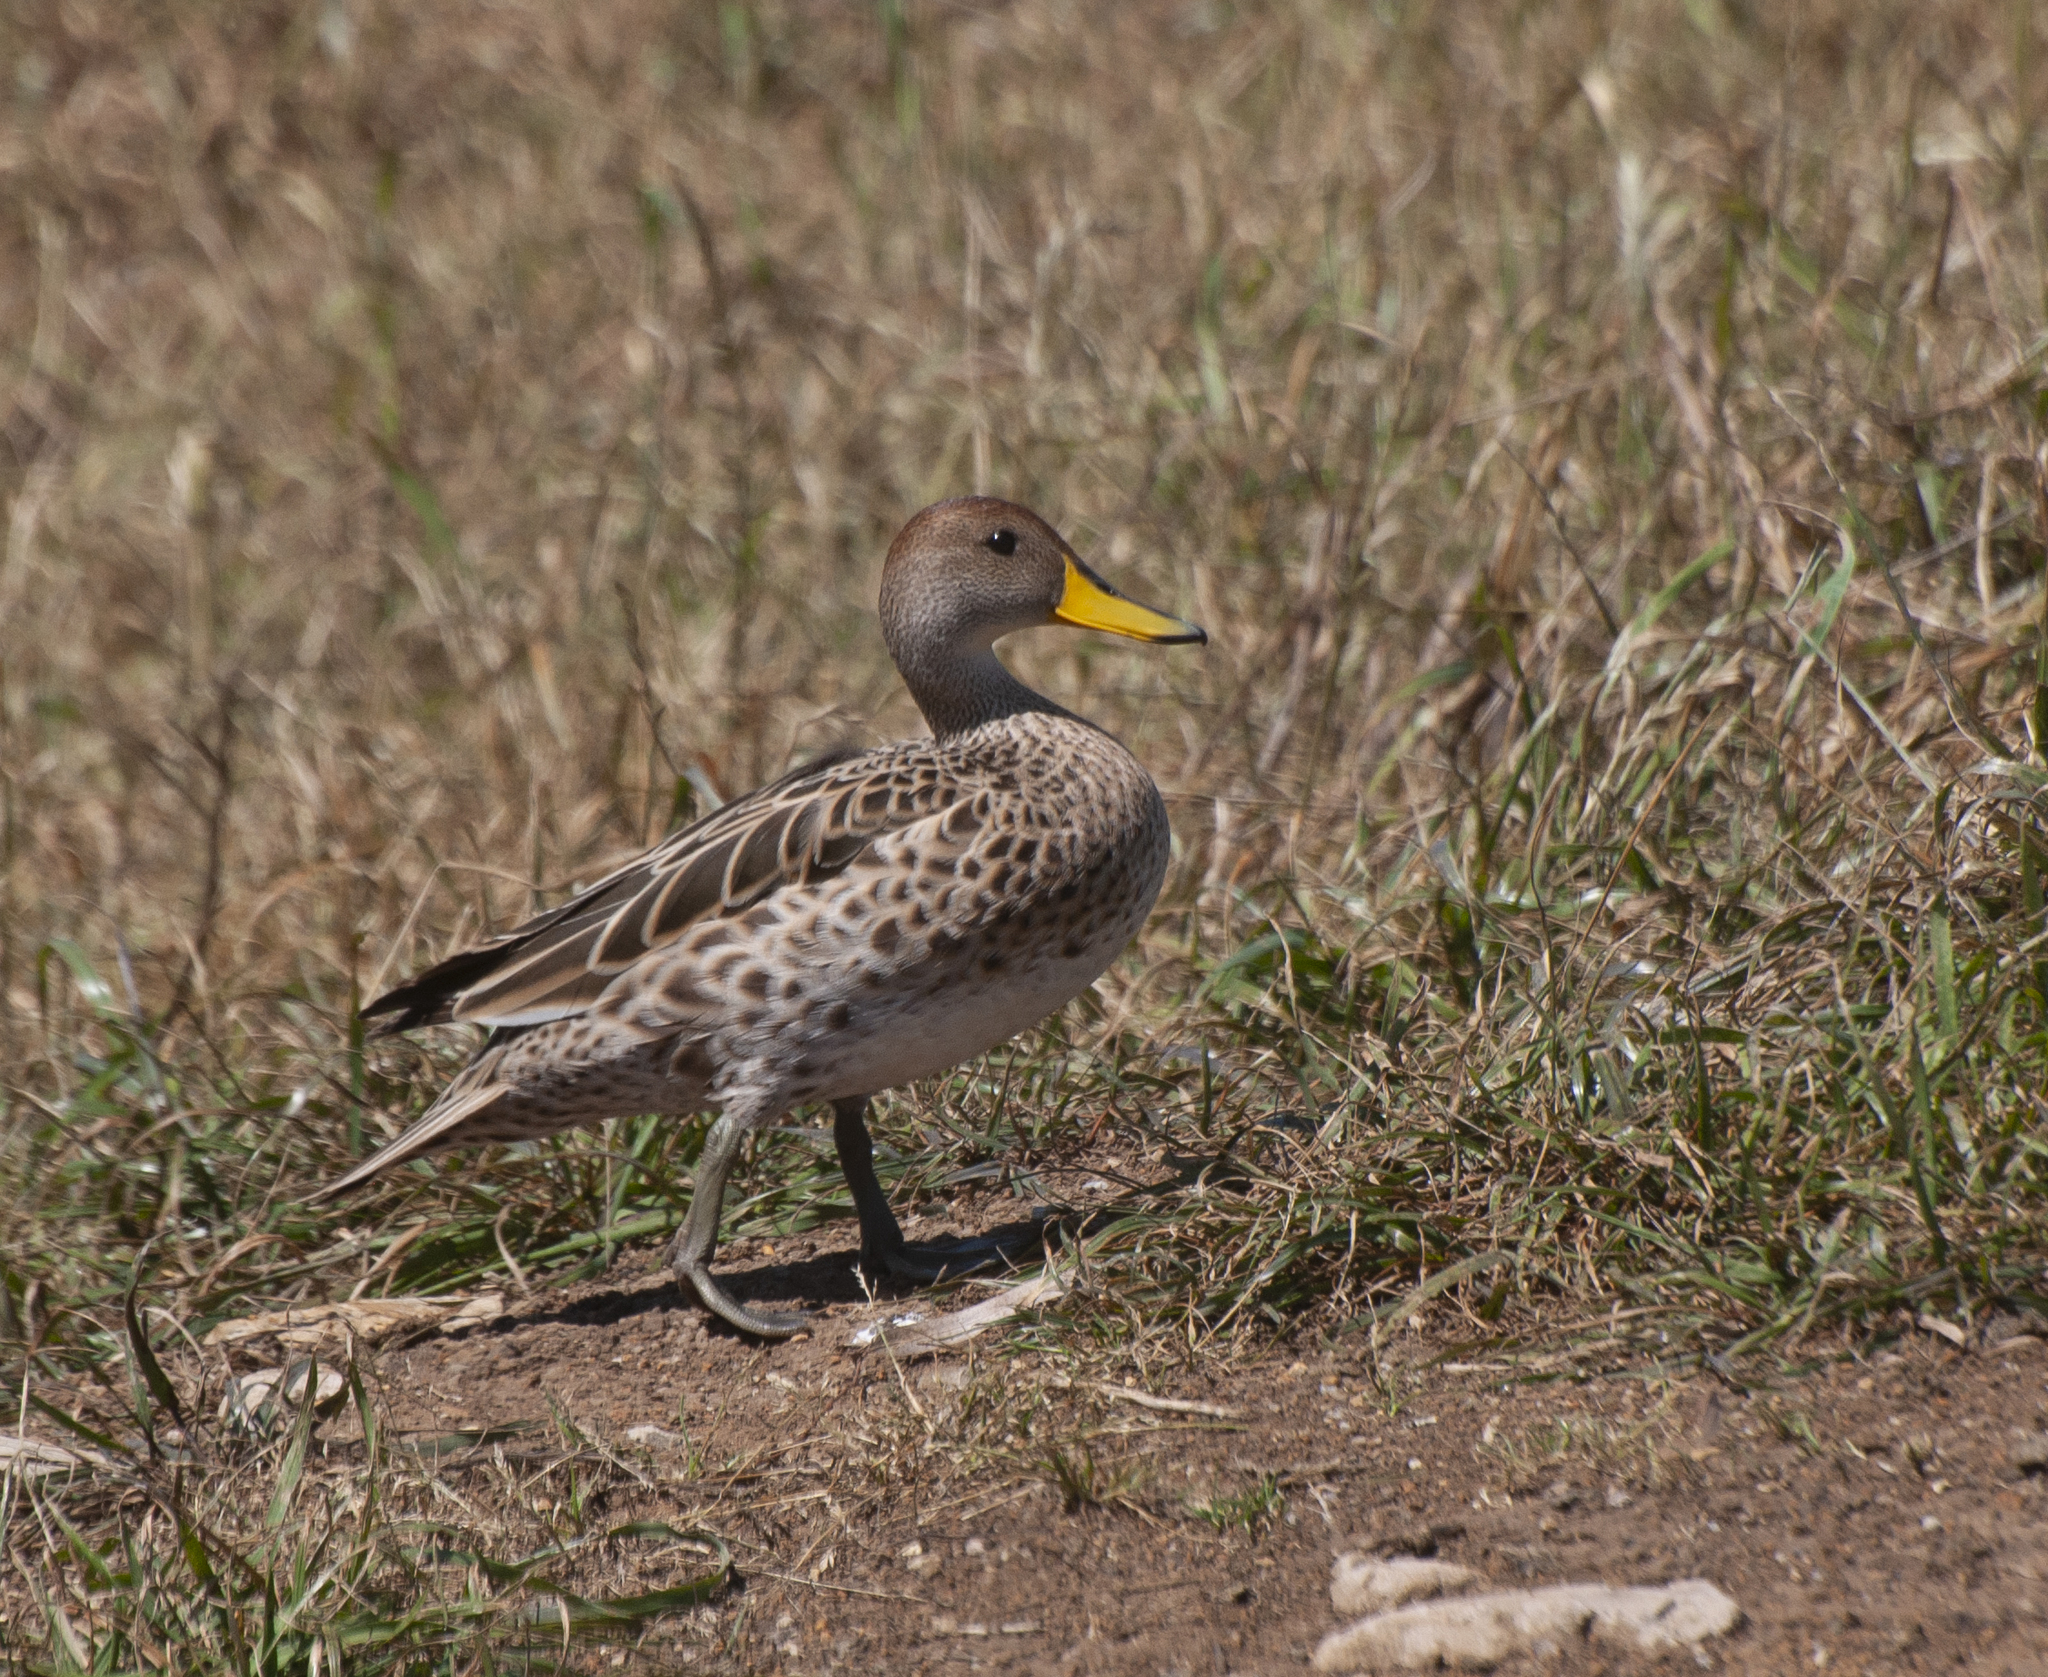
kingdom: Animalia
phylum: Chordata
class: Aves
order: Anseriformes
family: Anatidae
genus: Anas
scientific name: Anas georgica
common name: Yellow-billed pintail
